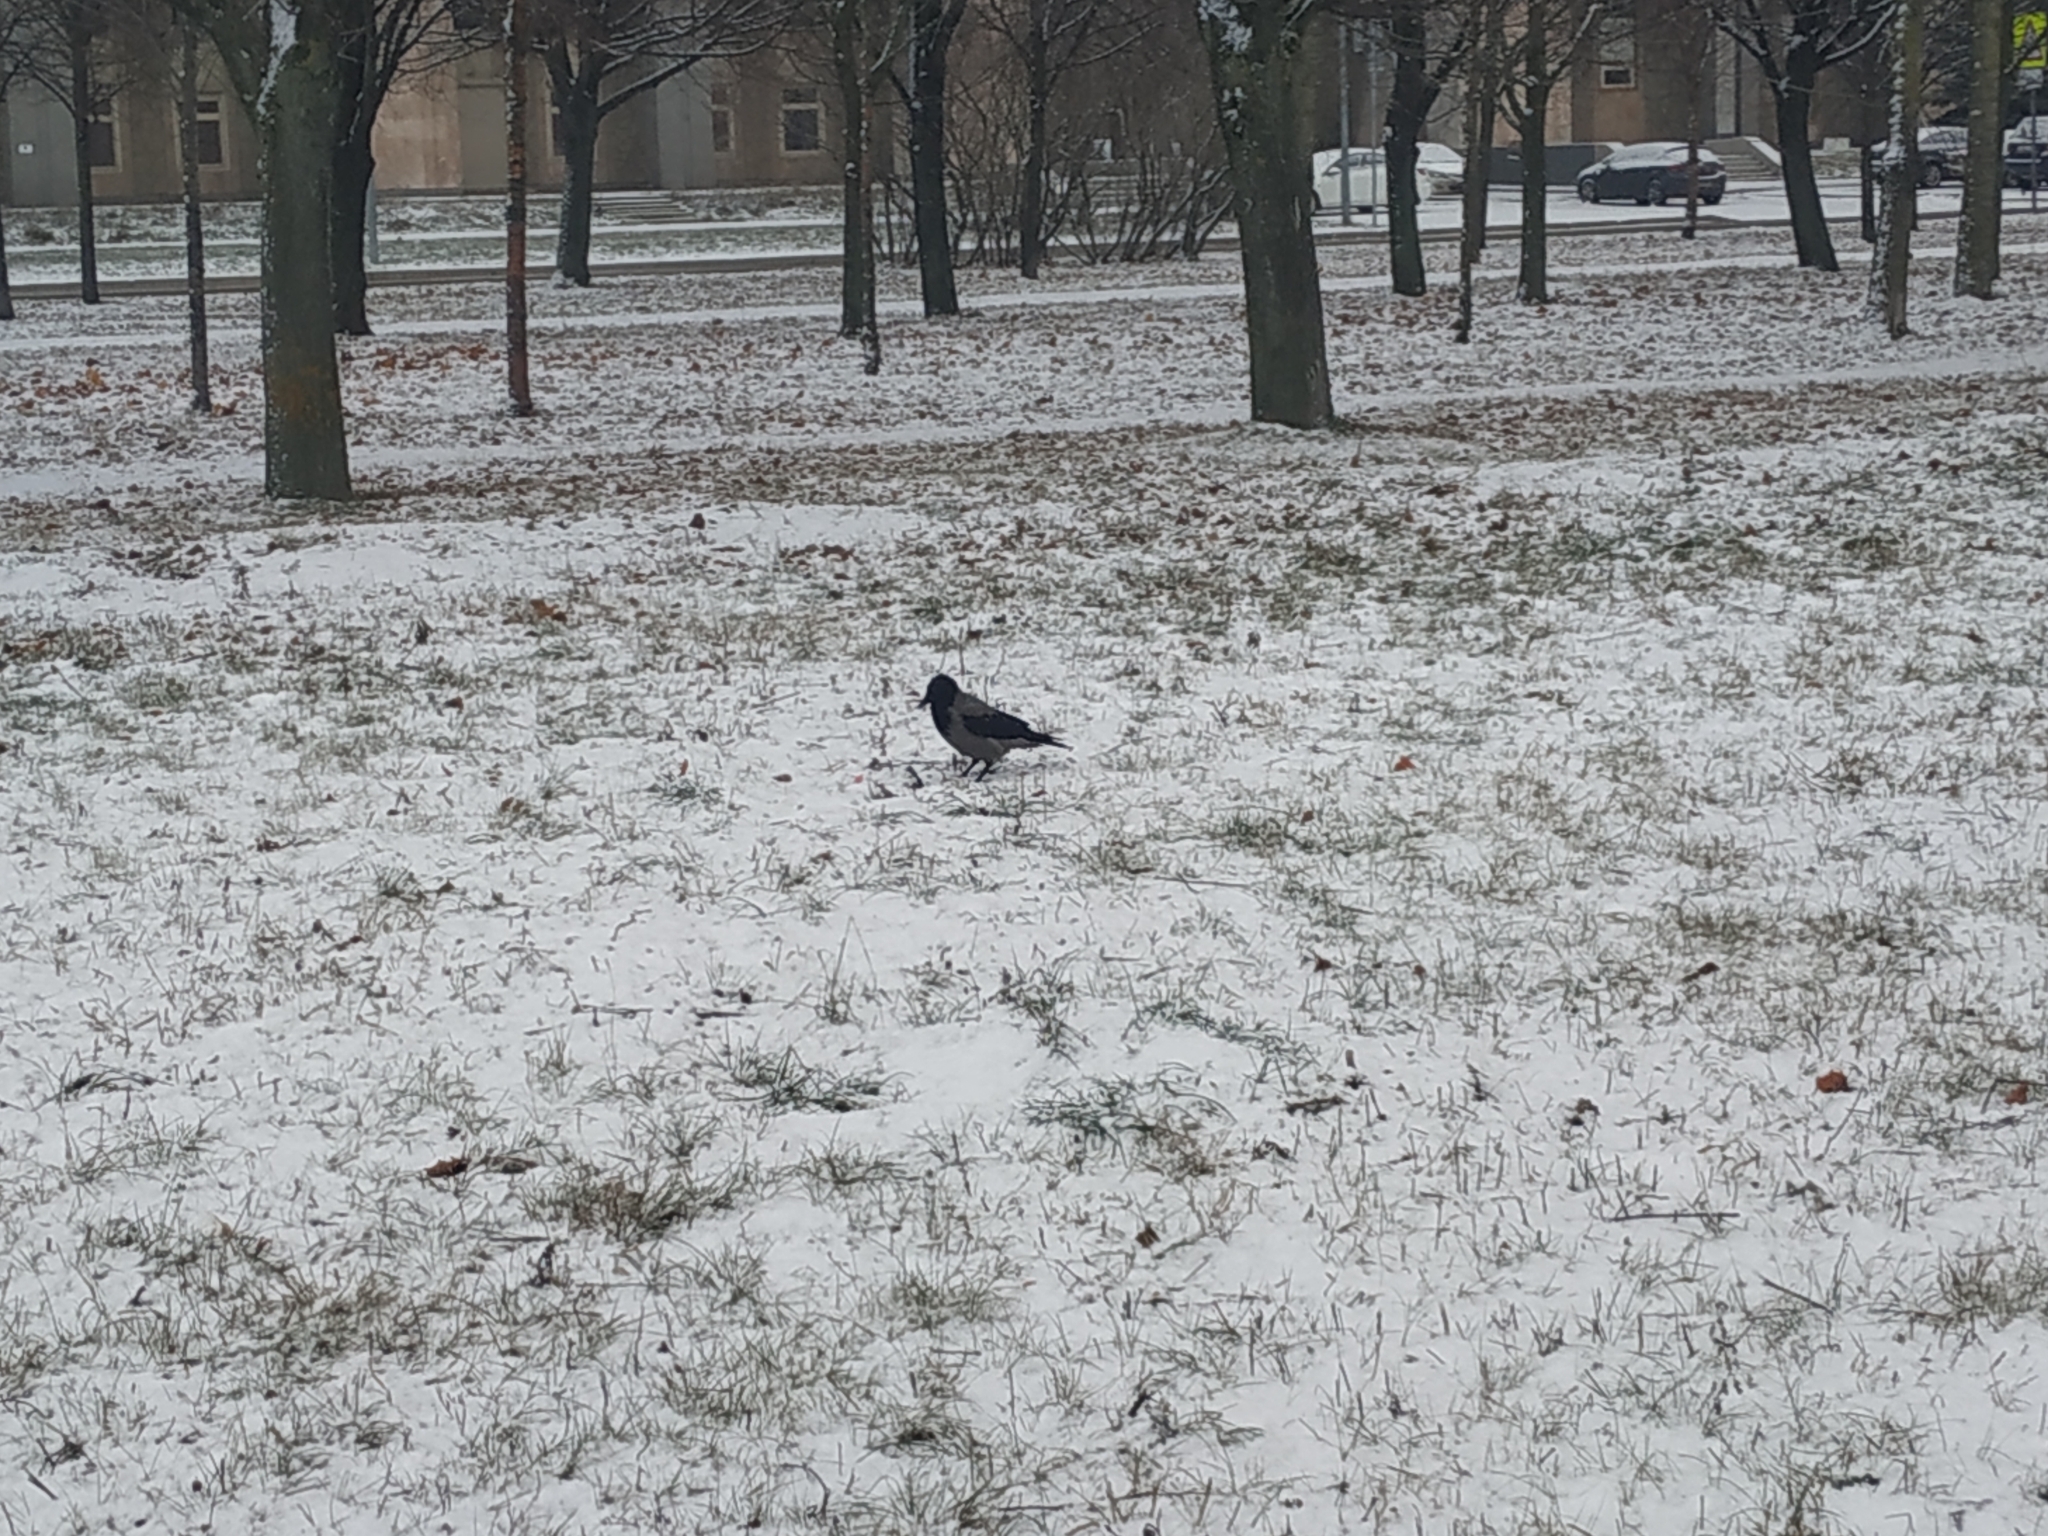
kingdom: Animalia
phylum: Chordata
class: Aves
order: Passeriformes
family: Corvidae
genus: Corvus
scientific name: Corvus cornix
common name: Hooded crow
